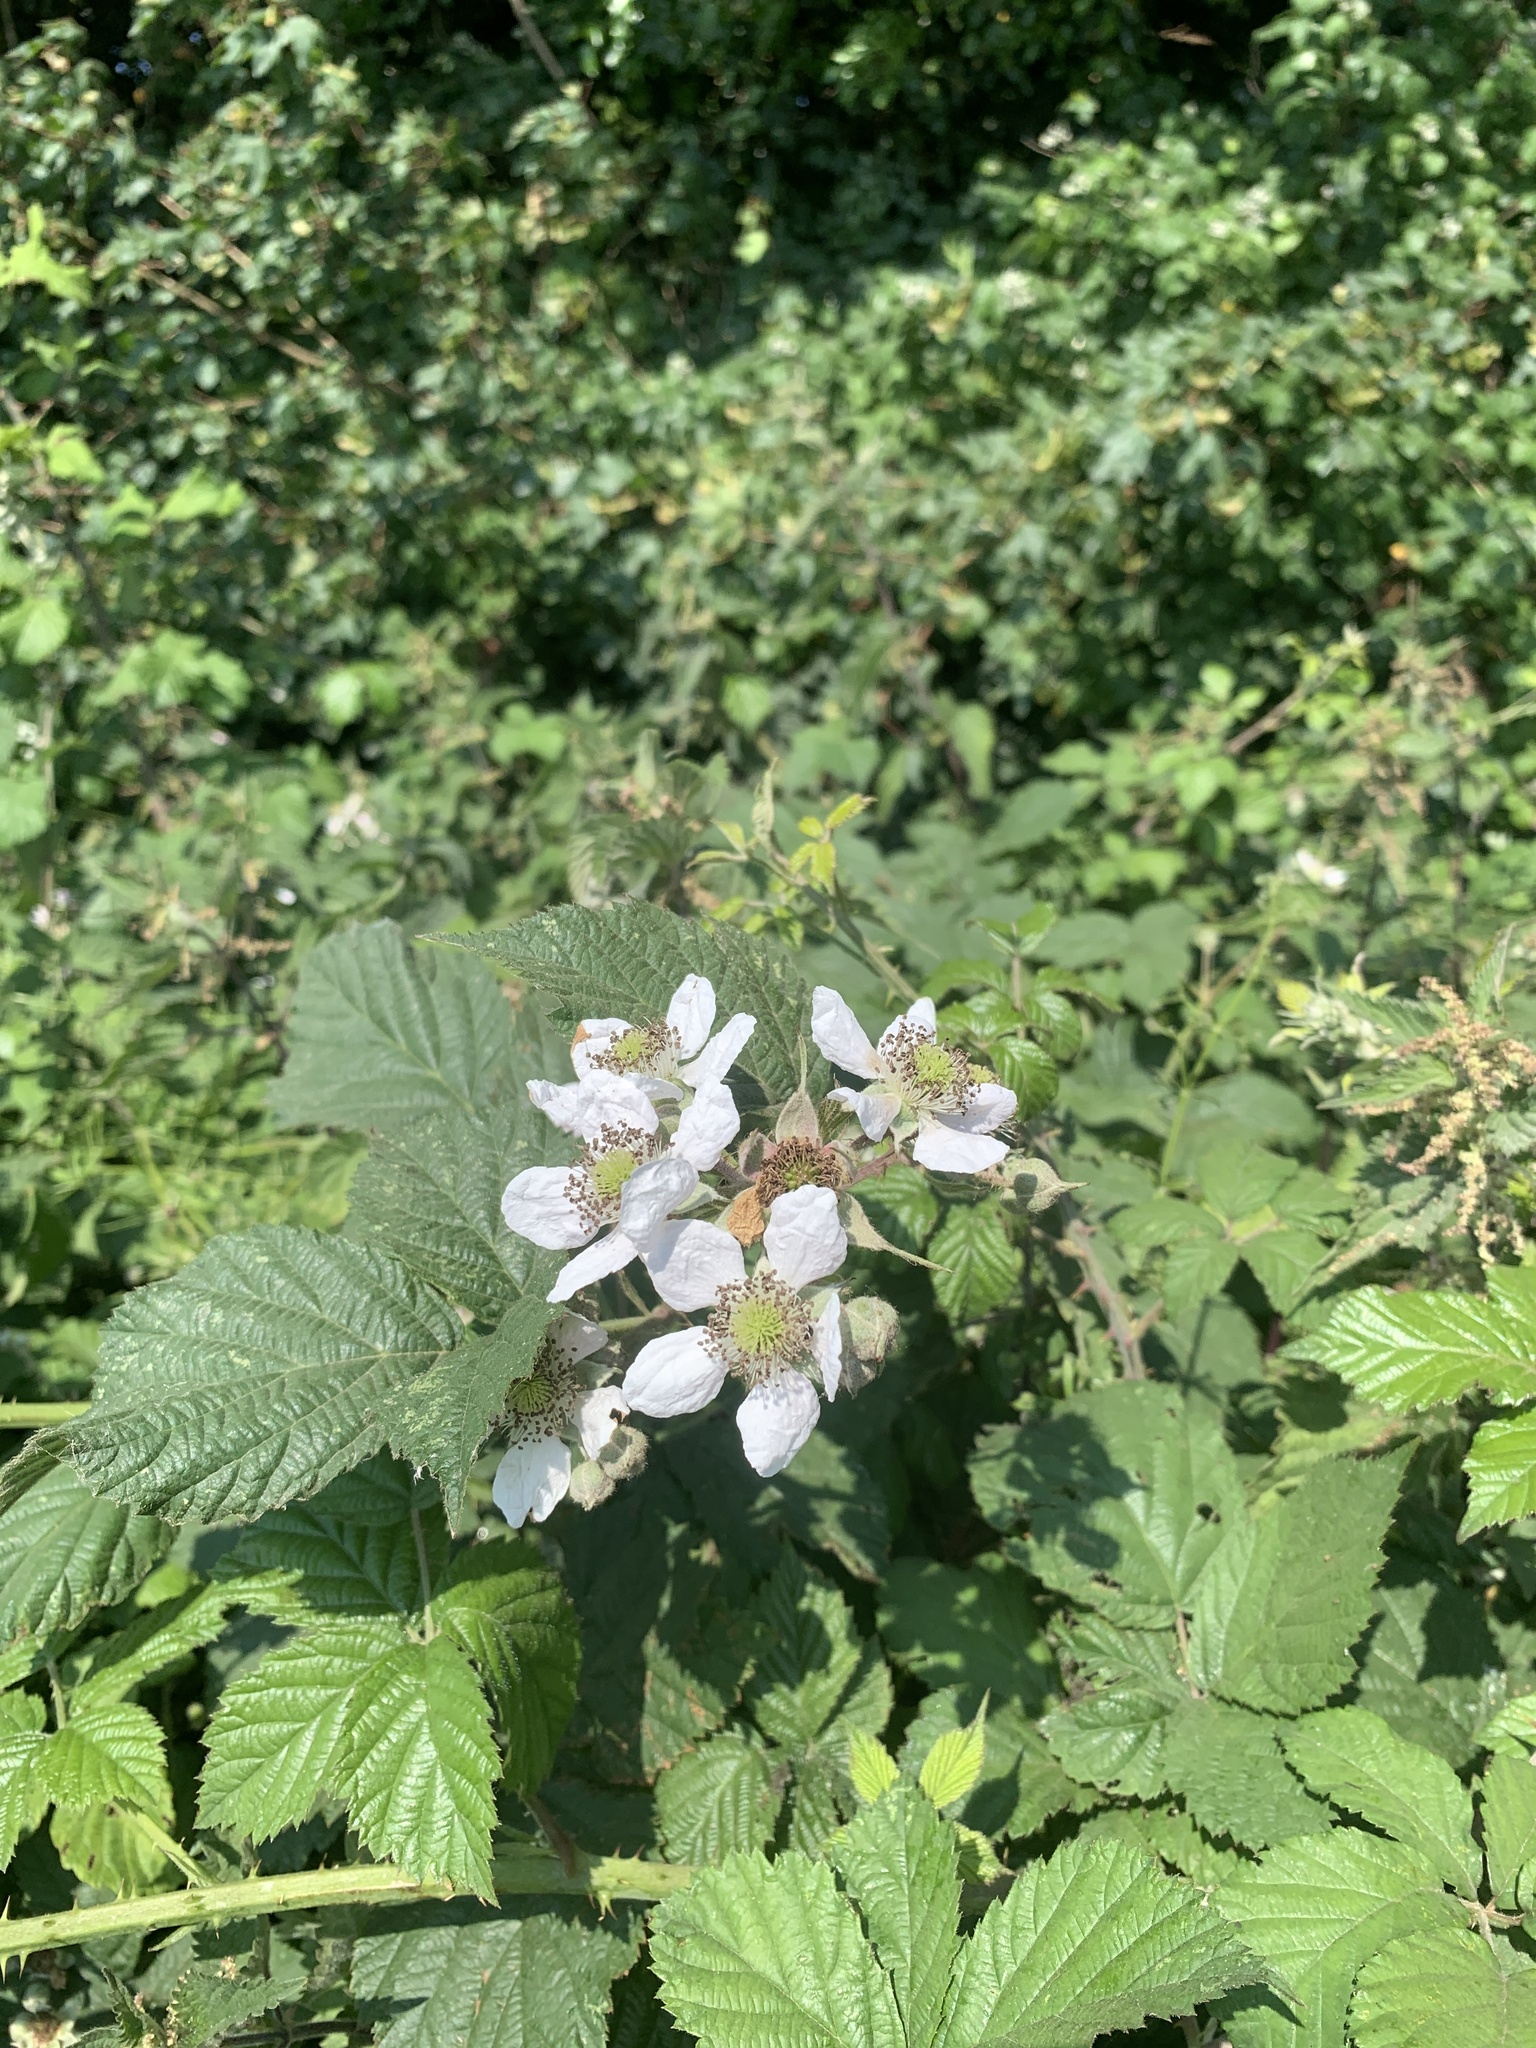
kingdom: Plantae
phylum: Tracheophyta
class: Magnoliopsida
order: Rosales
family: Rosaceae
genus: Rubus
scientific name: Rubus fruticosus
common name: Blackberry, bramble
